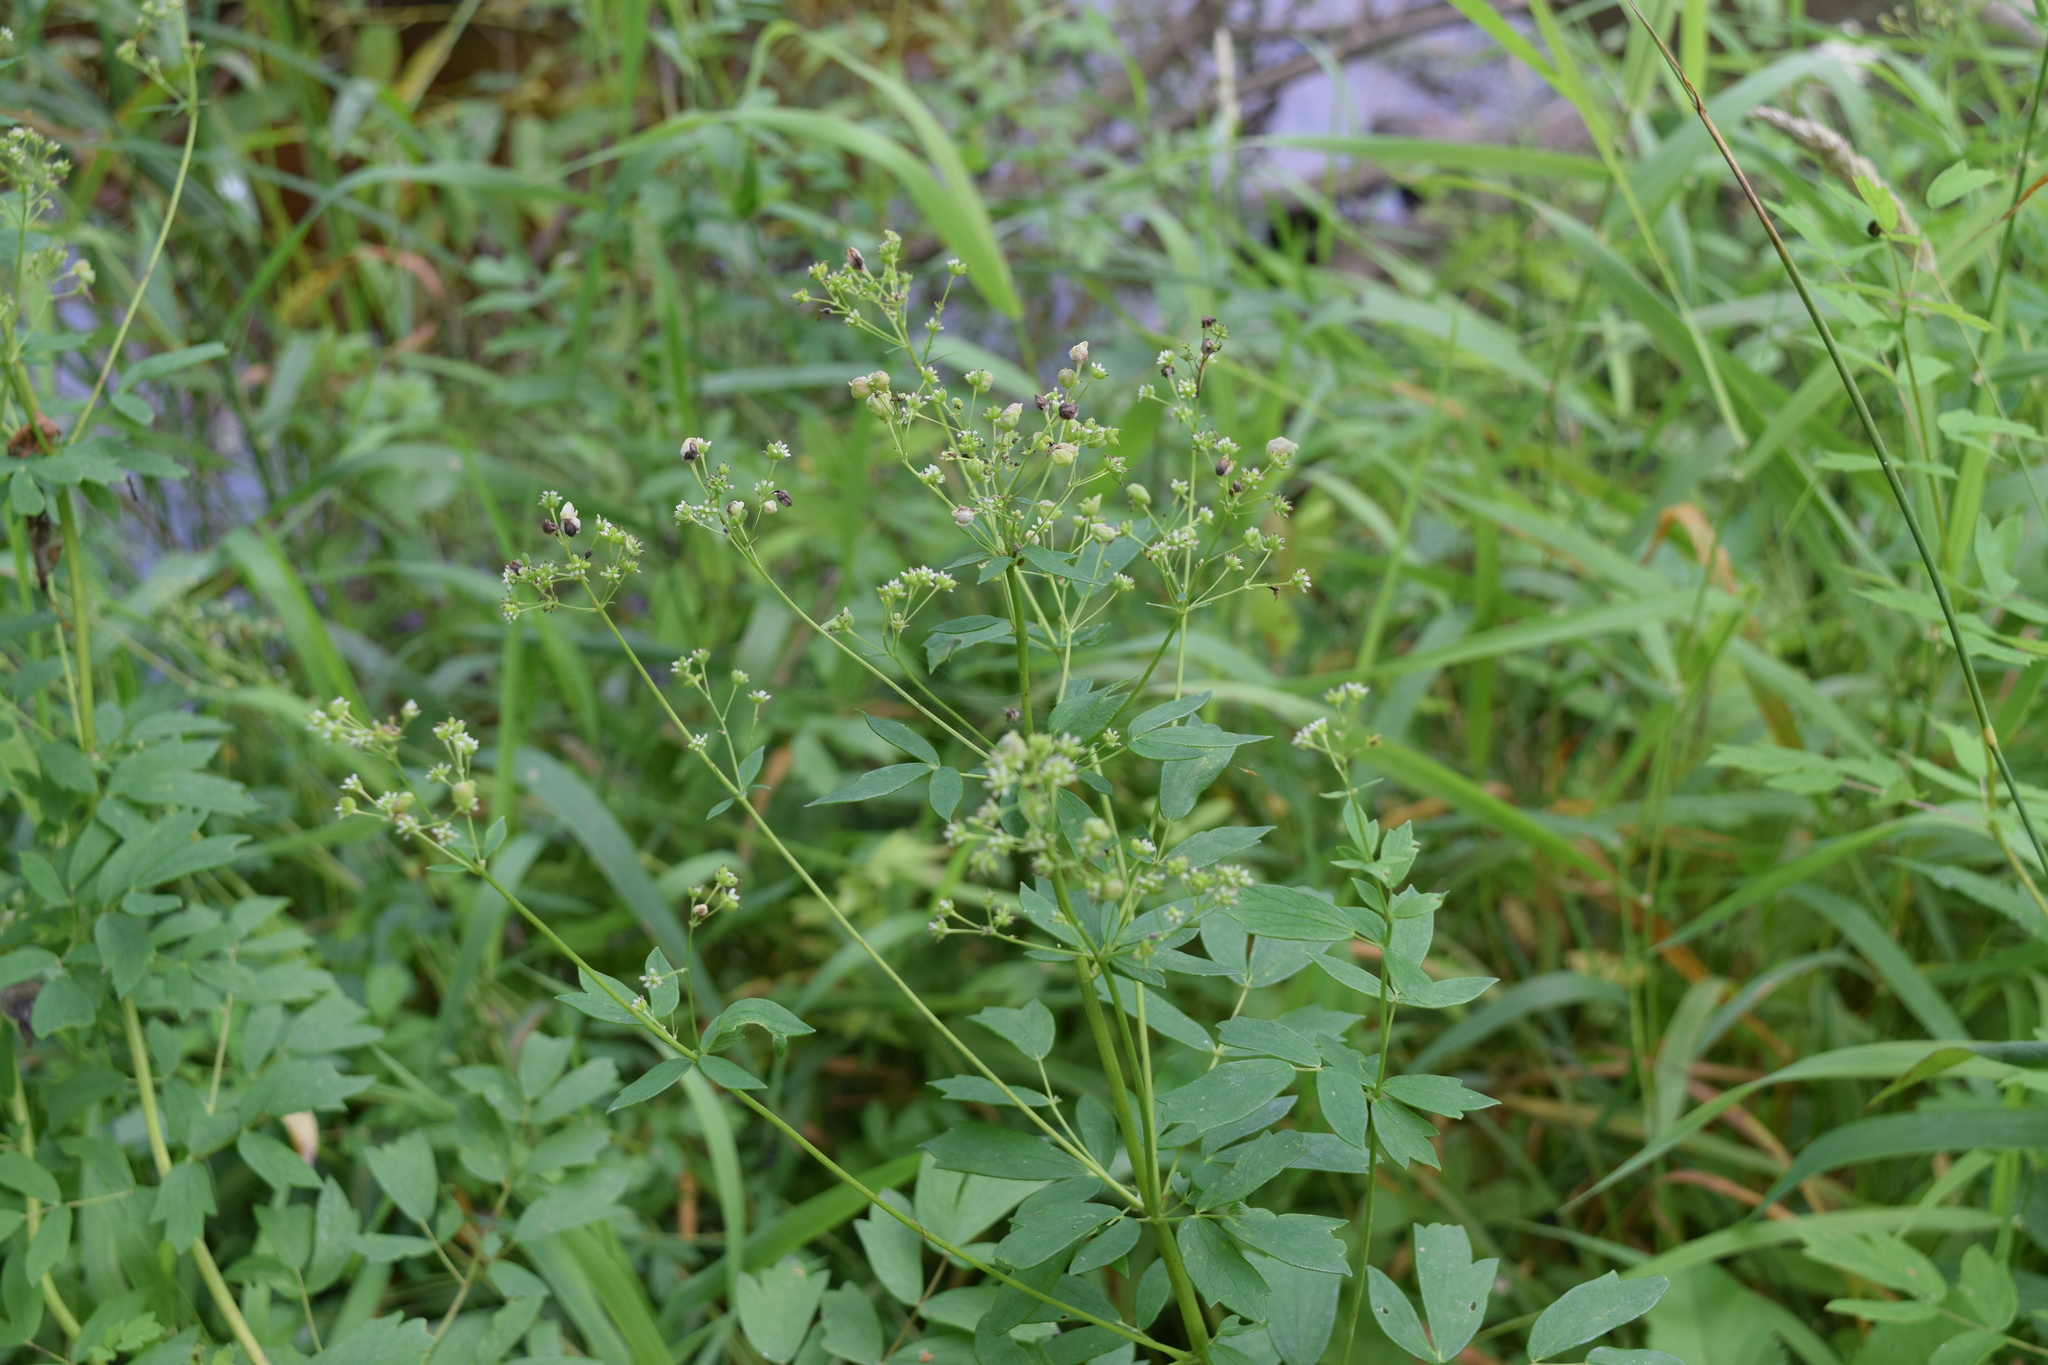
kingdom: Plantae
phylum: Tracheophyta
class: Magnoliopsida
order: Ranunculales
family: Ranunculaceae
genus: Thalictrum
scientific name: Thalictrum flavum
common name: Common meadow-rue
